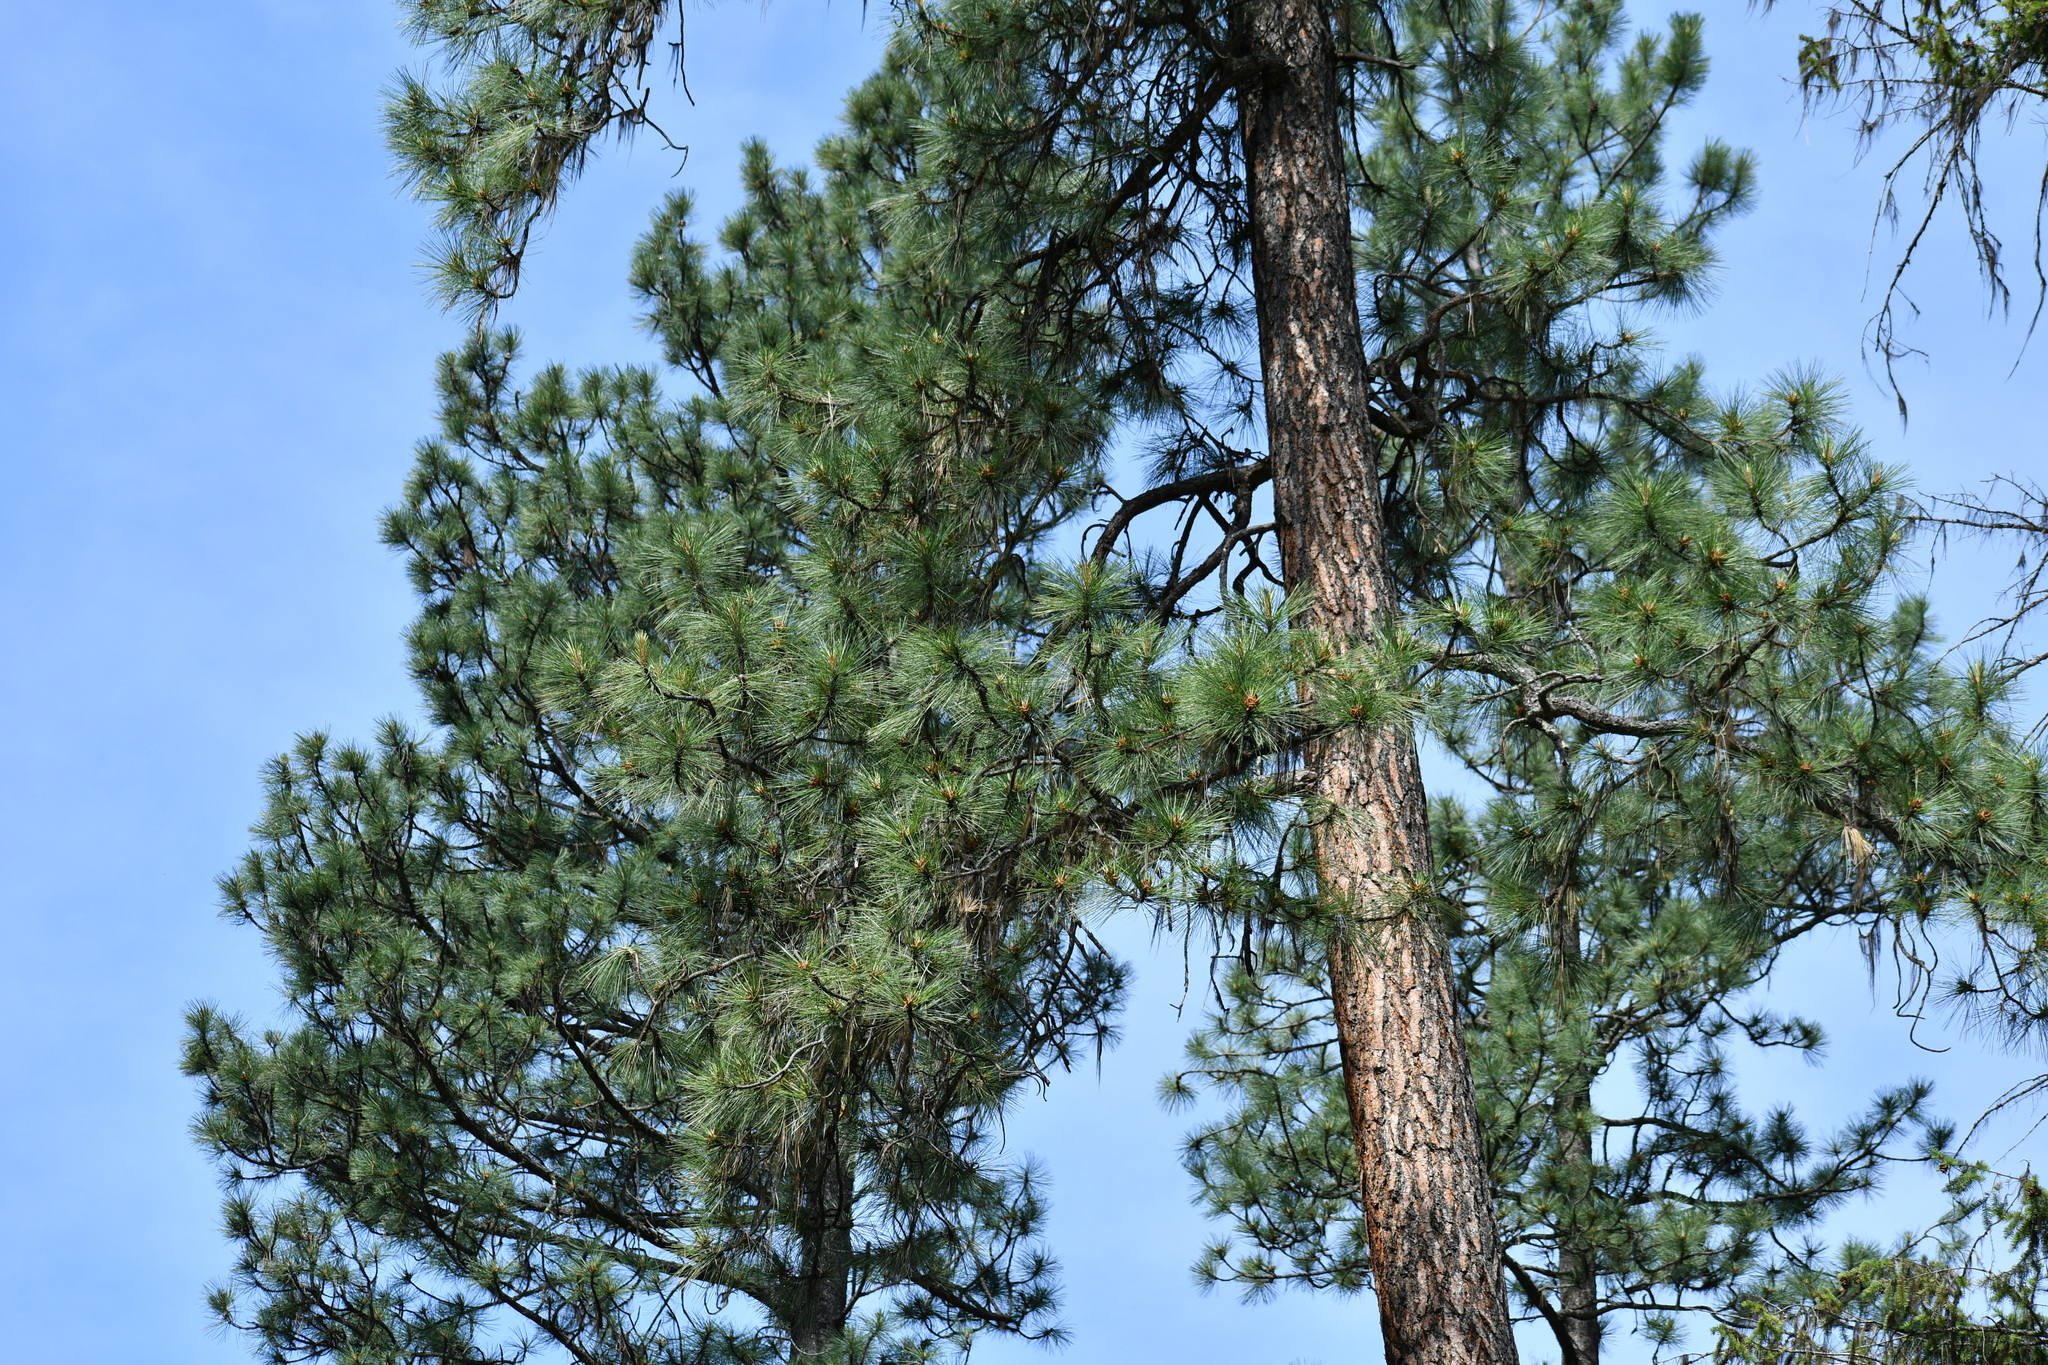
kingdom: Plantae
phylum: Tracheophyta
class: Pinopsida
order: Pinales
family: Pinaceae
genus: Pinus
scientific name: Pinus ponderosa
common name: Western yellow-pine
